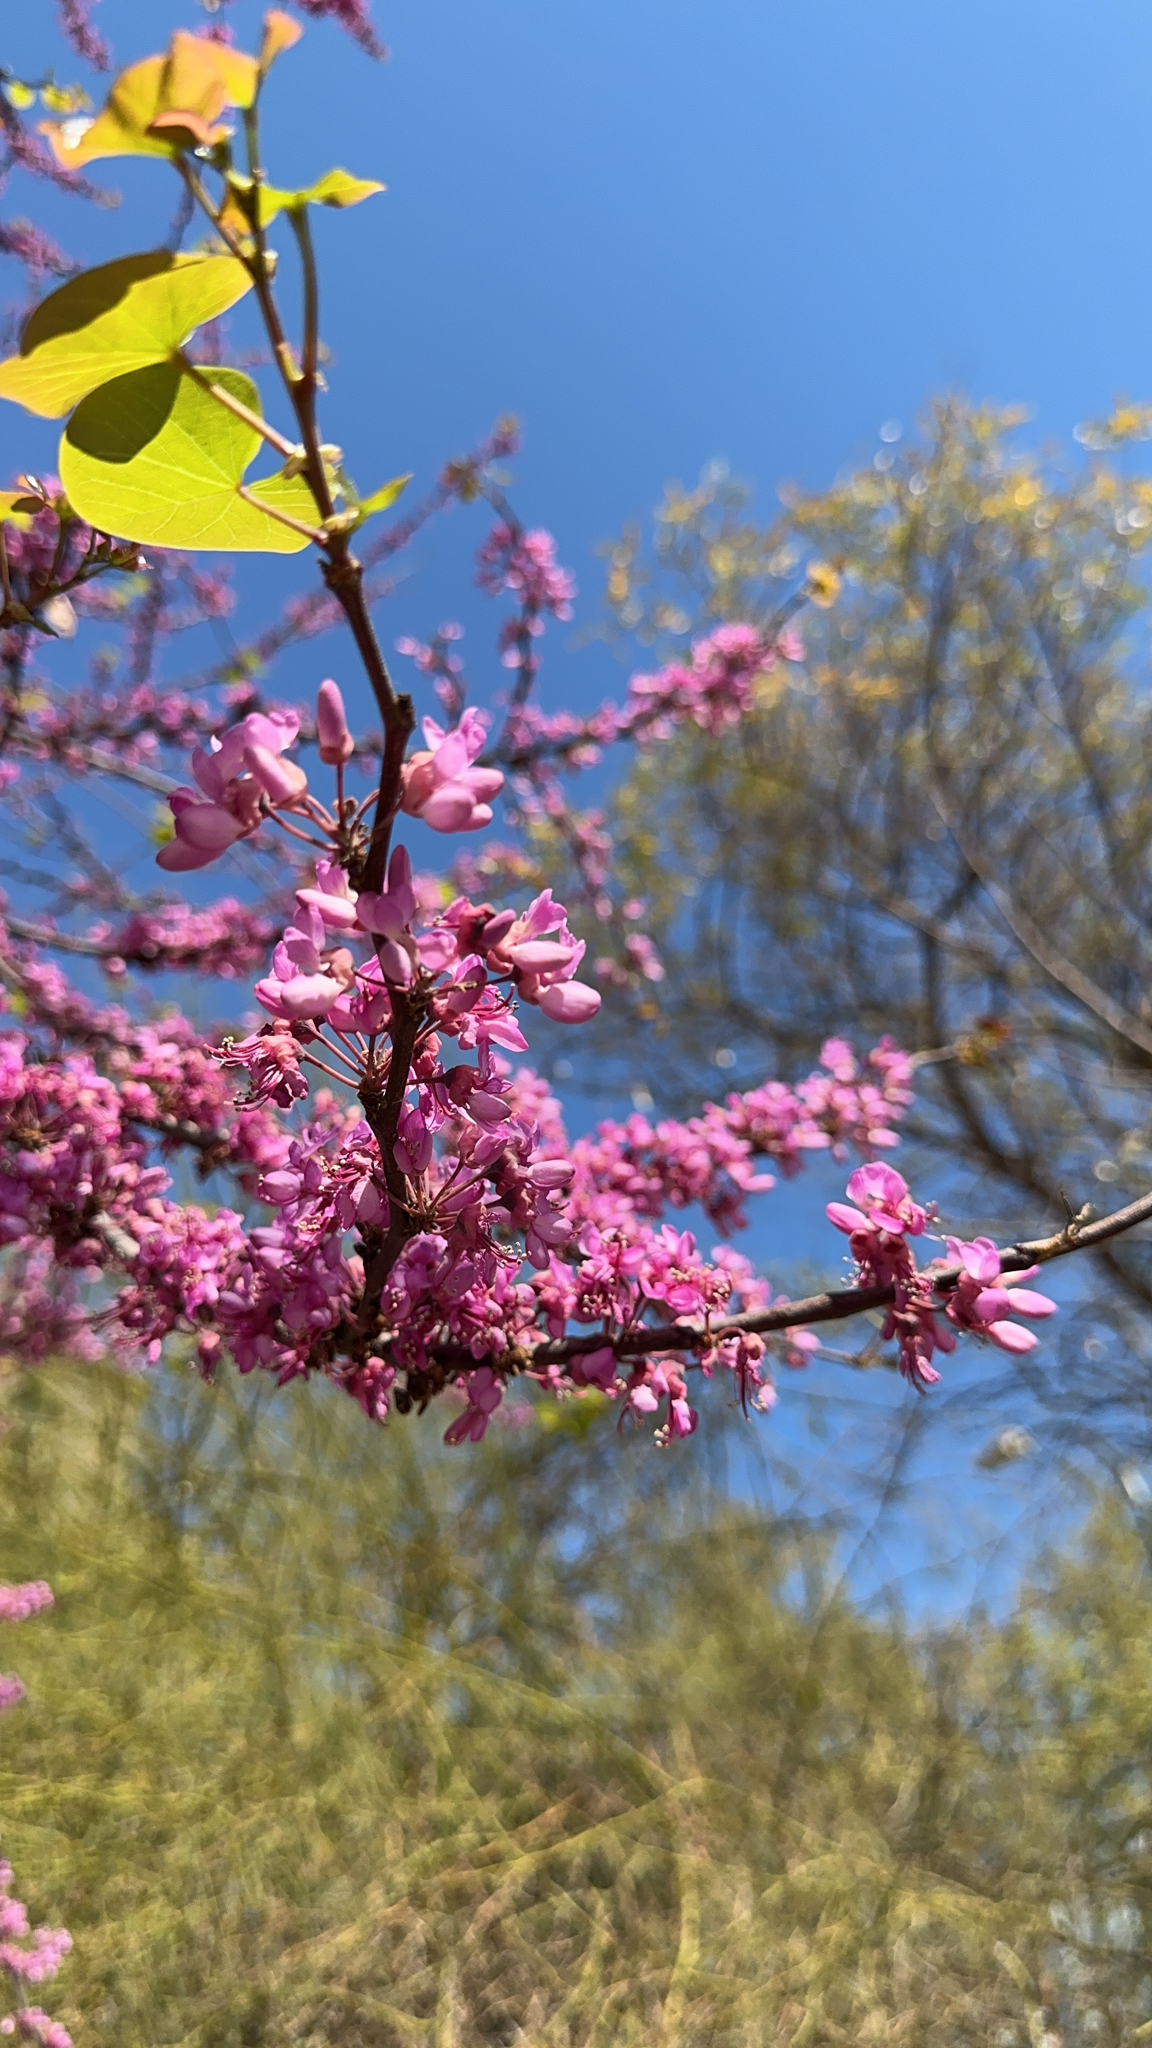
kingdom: Plantae
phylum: Tracheophyta
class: Magnoliopsida
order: Fabales
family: Fabaceae
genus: Cercis
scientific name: Cercis canadensis
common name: Eastern redbud
